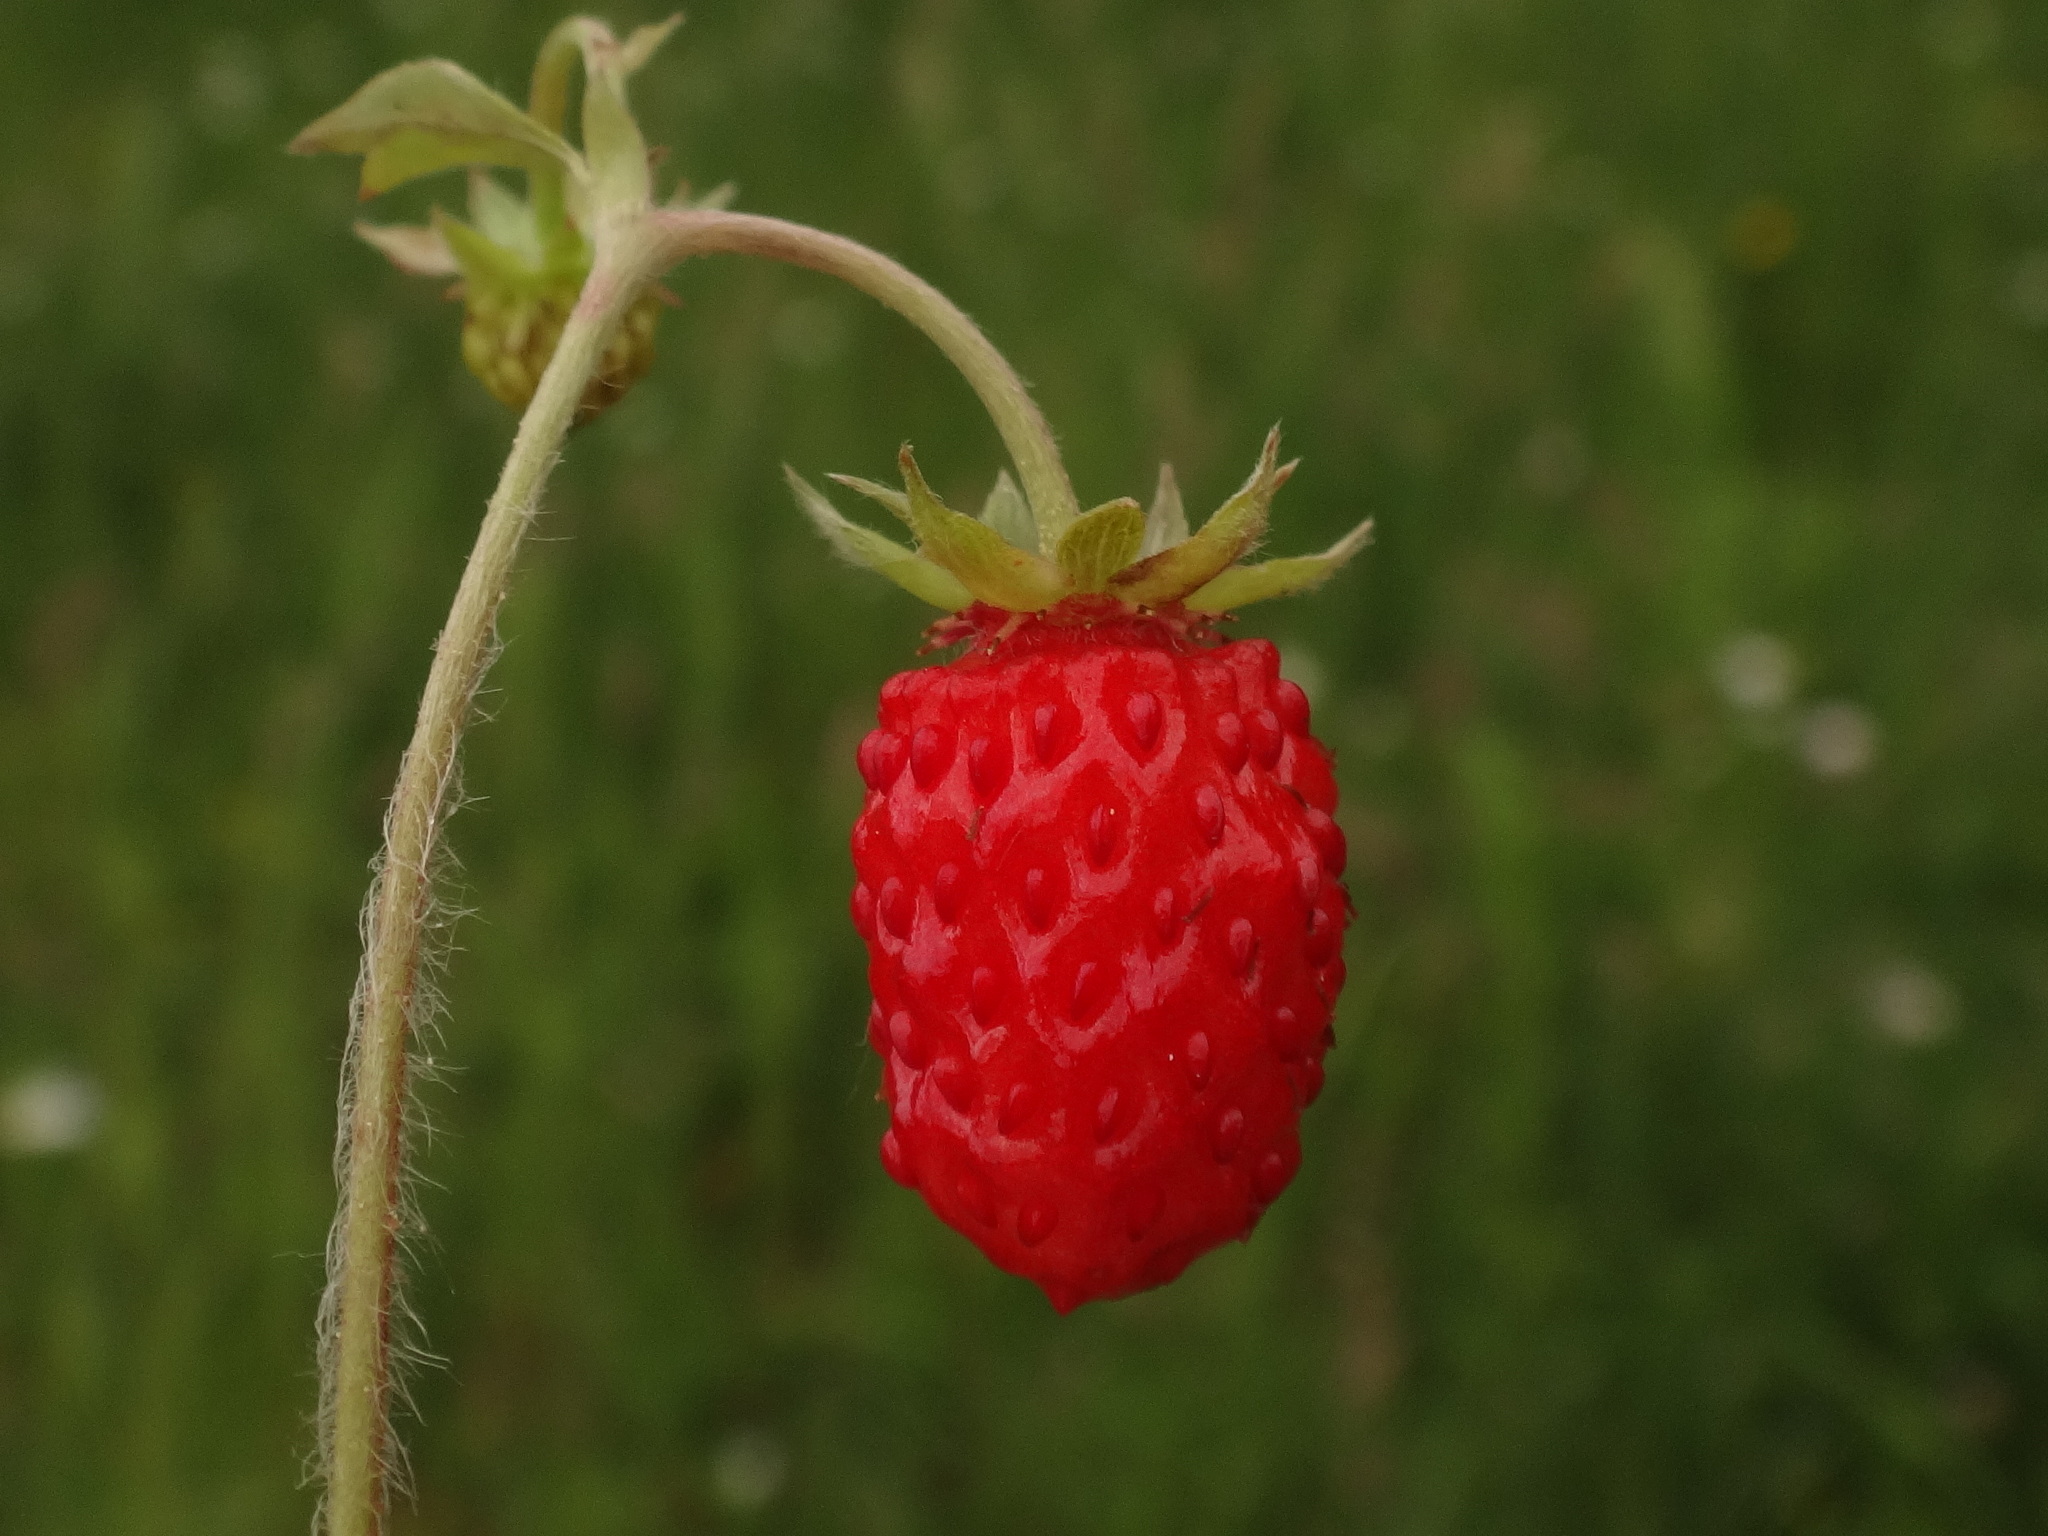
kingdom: Plantae
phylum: Tracheophyta
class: Magnoliopsida
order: Rosales
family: Rosaceae
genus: Fragaria
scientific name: Fragaria vesca
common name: Wild strawberry
